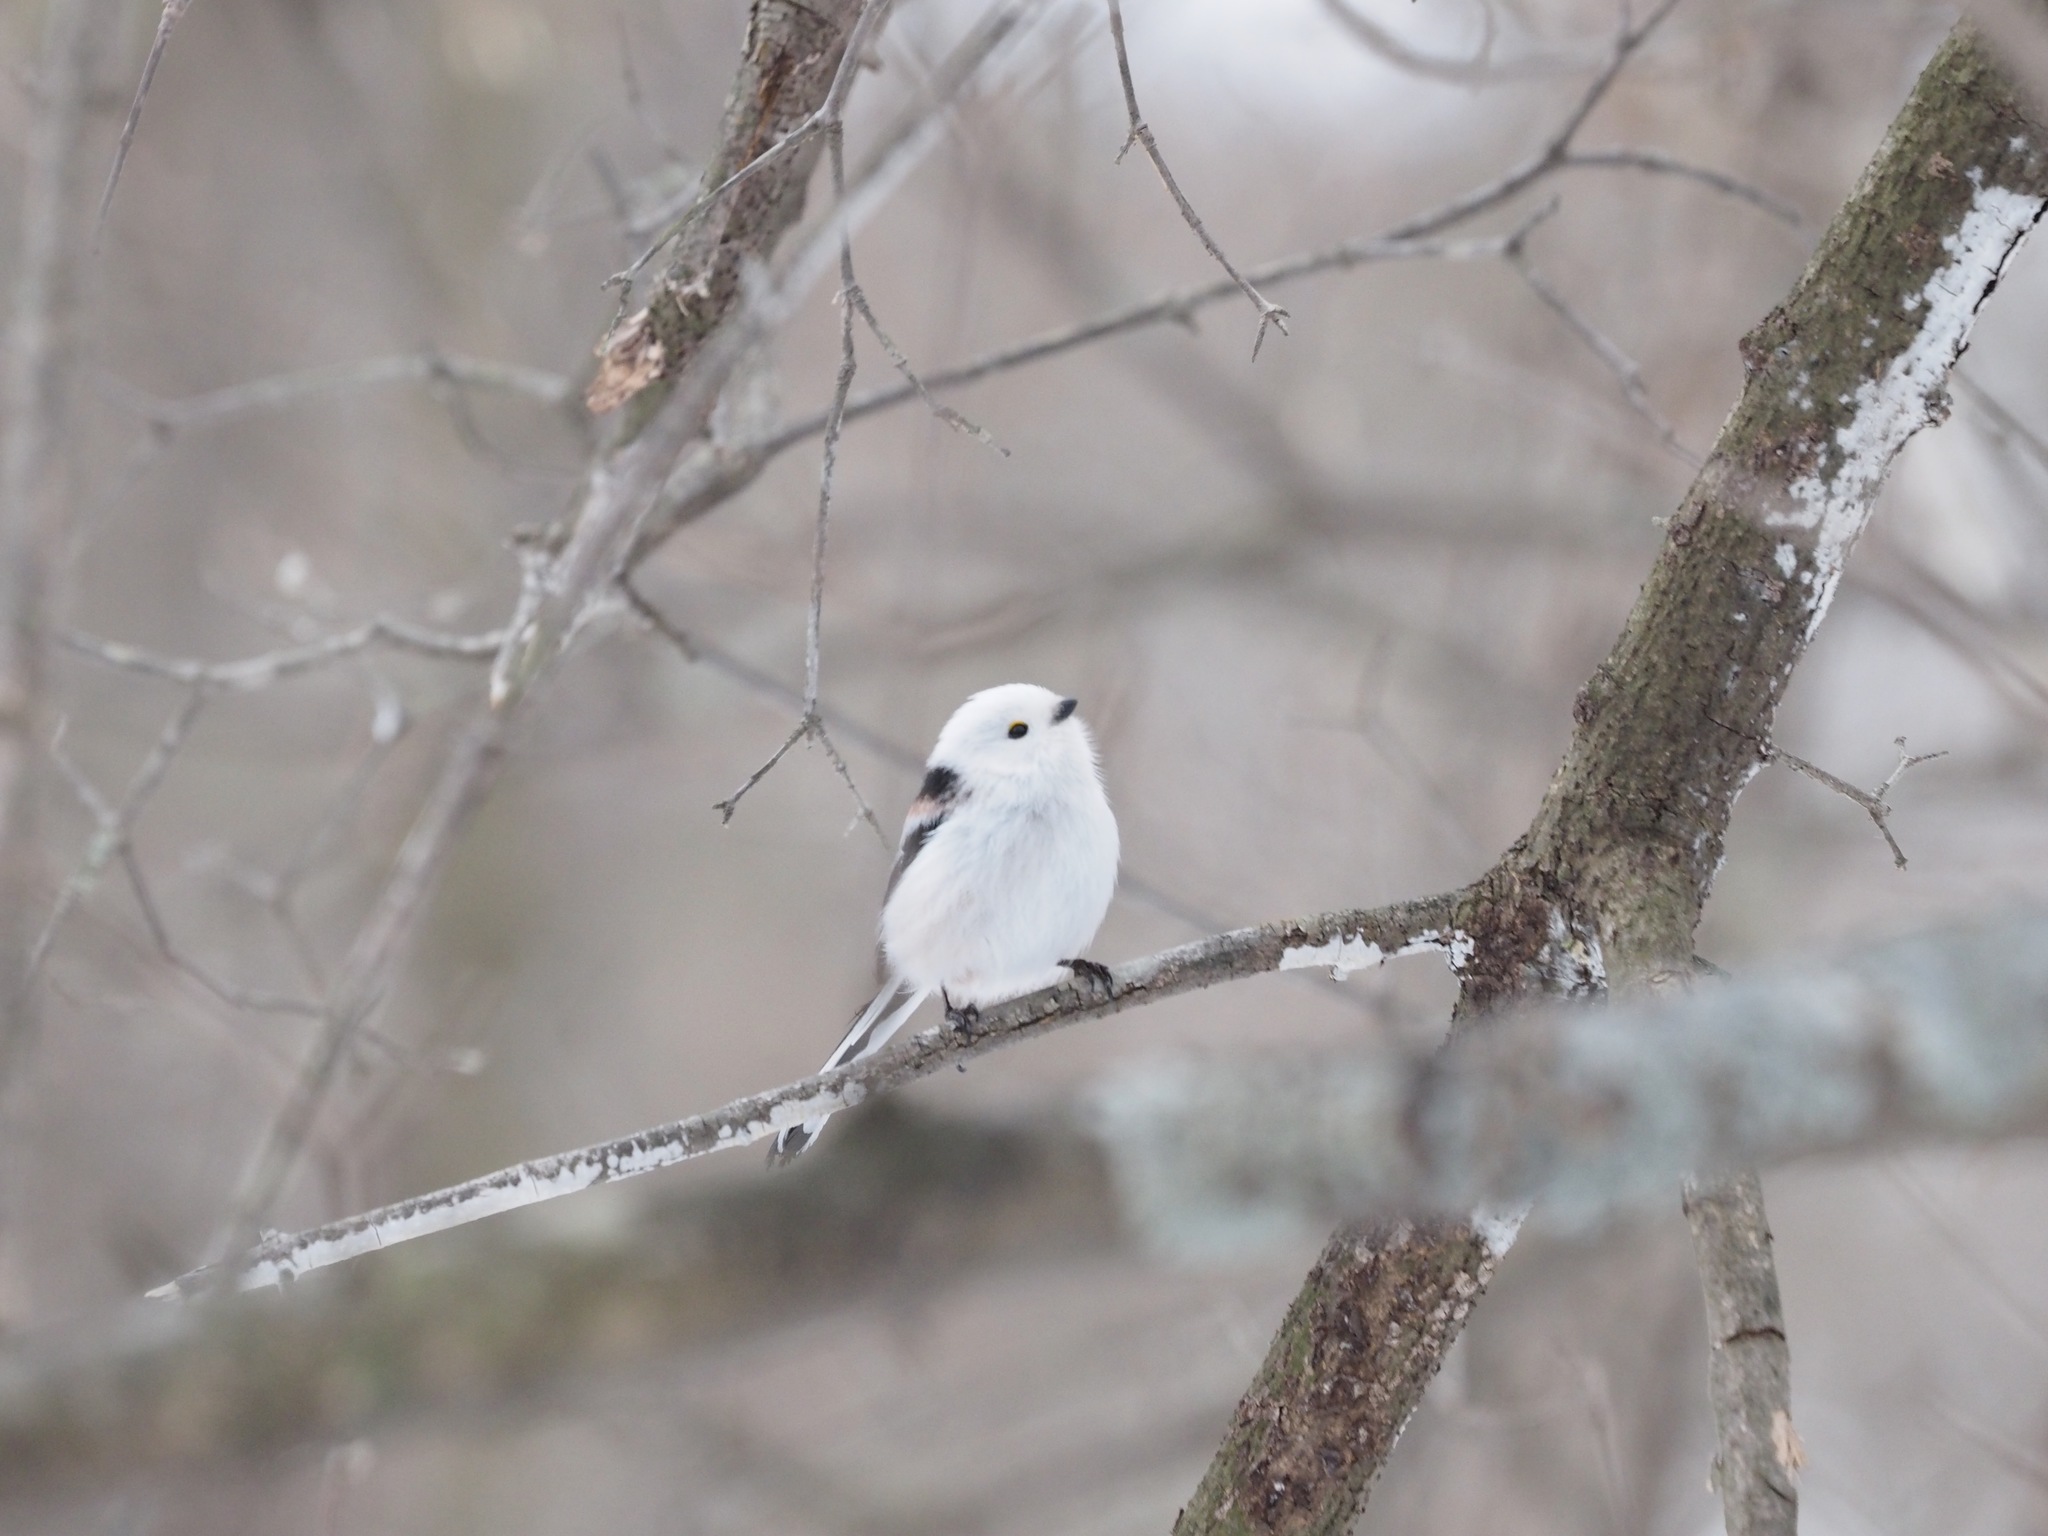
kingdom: Animalia
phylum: Chordata
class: Aves
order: Passeriformes
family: Aegithalidae
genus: Aegithalos
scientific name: Aegithalos caudatus
